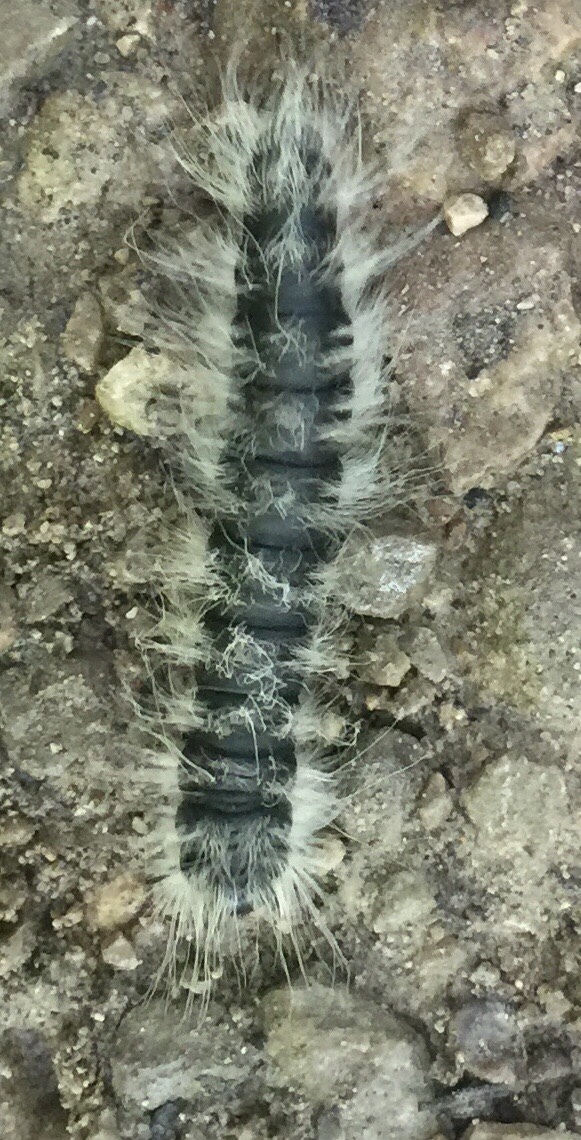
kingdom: Animalia
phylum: Arthropoda
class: Insecta
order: Lepidoptera
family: Notodontidae
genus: Datana
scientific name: Datana integerrima
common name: Walnut caterpillar
